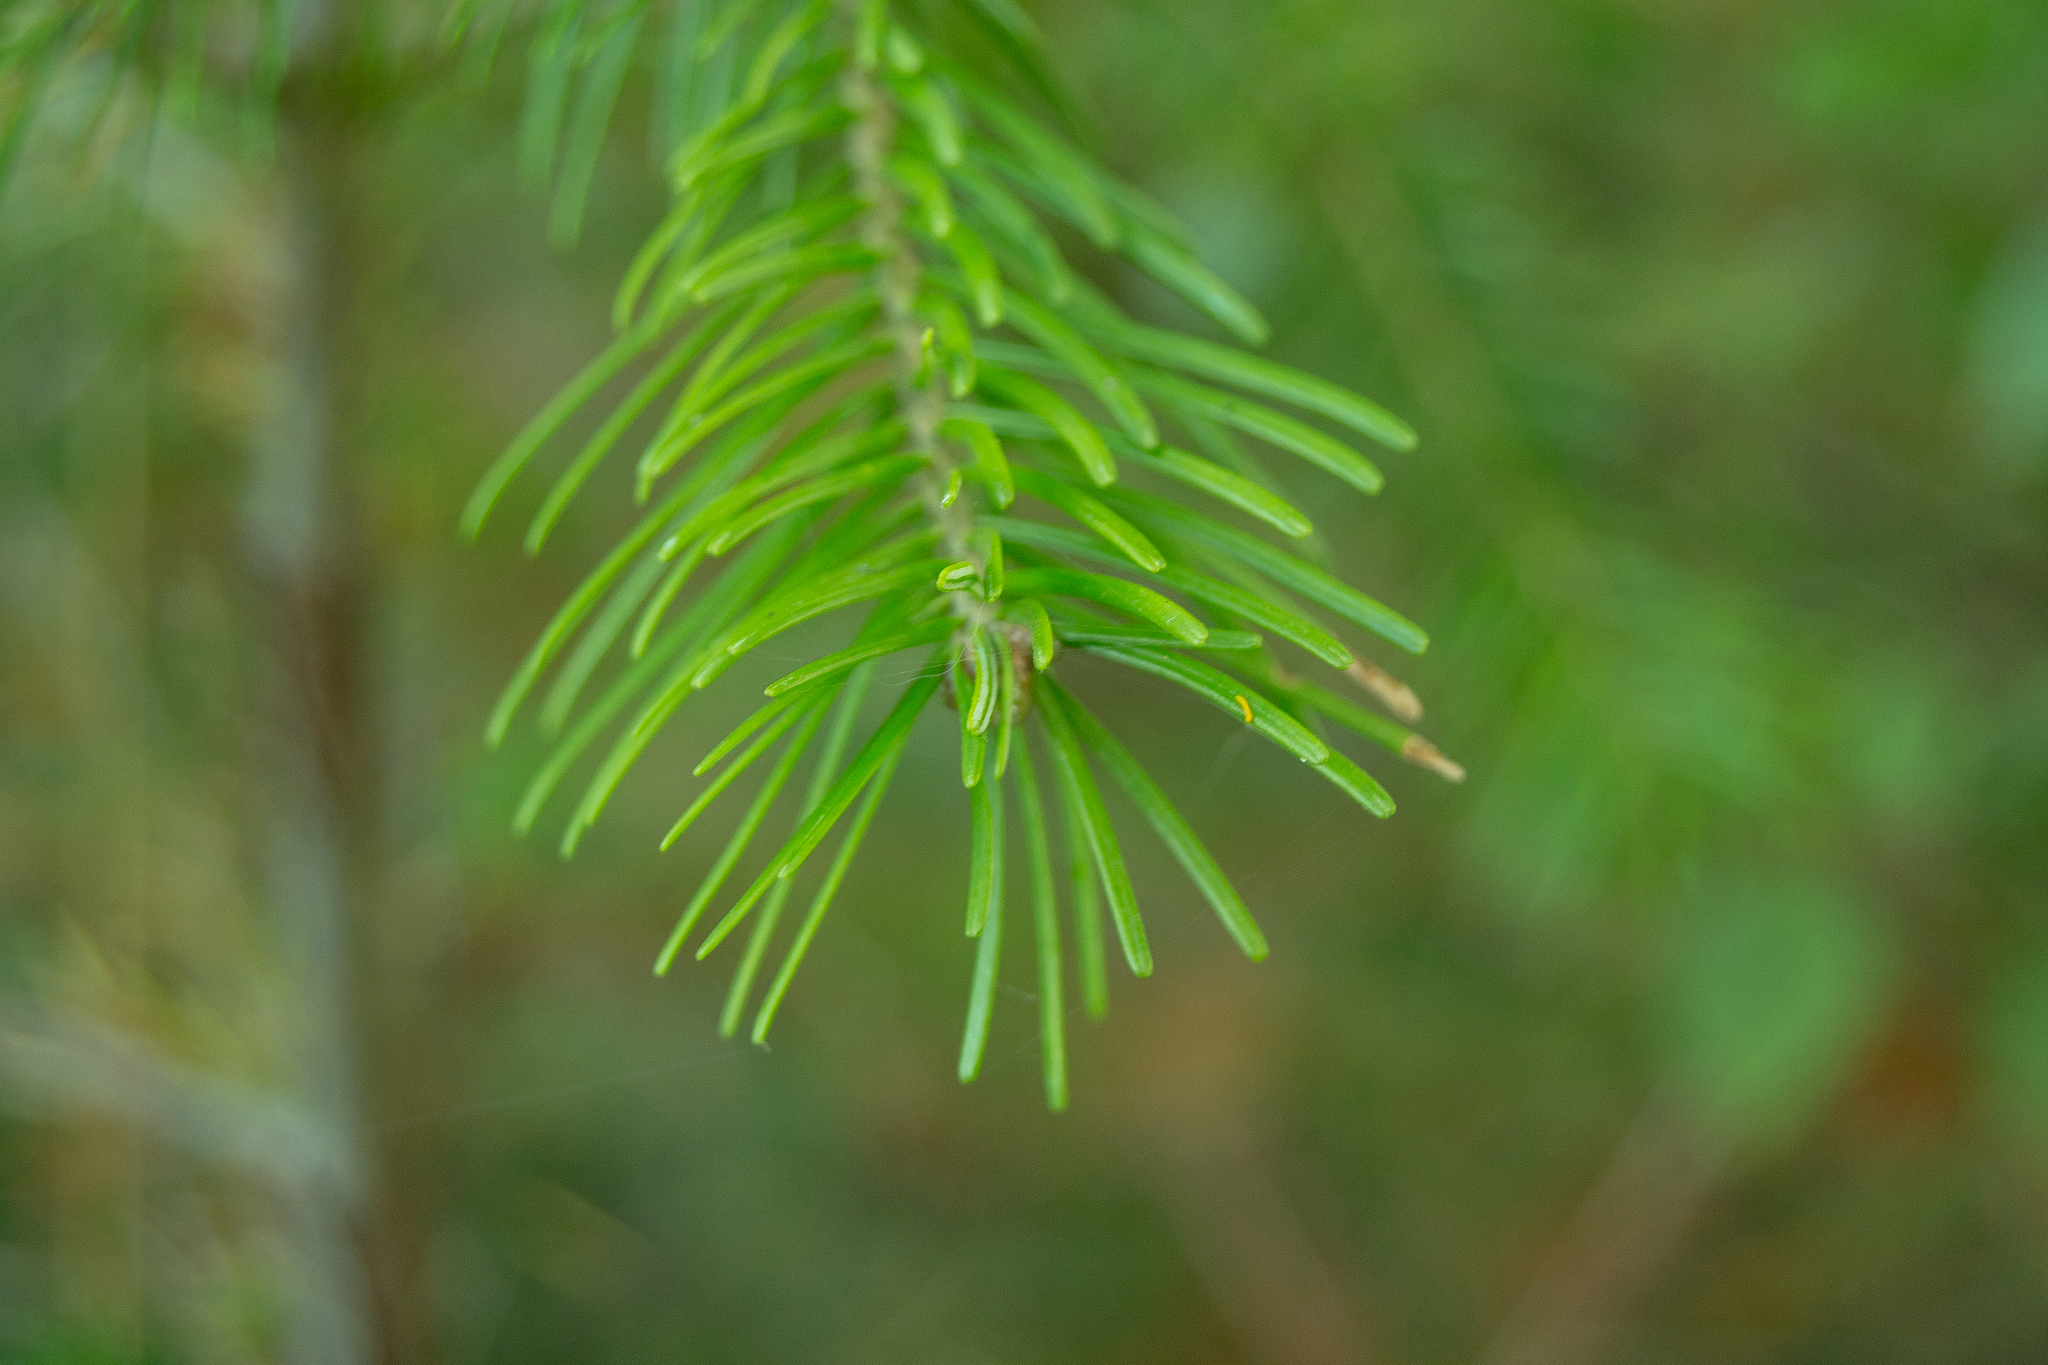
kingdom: Plantae
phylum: Tracheophyta
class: Pinopsida
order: Pinales
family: Pinaceae
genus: Abies
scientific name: Abies sibirica
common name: Siberian fir
